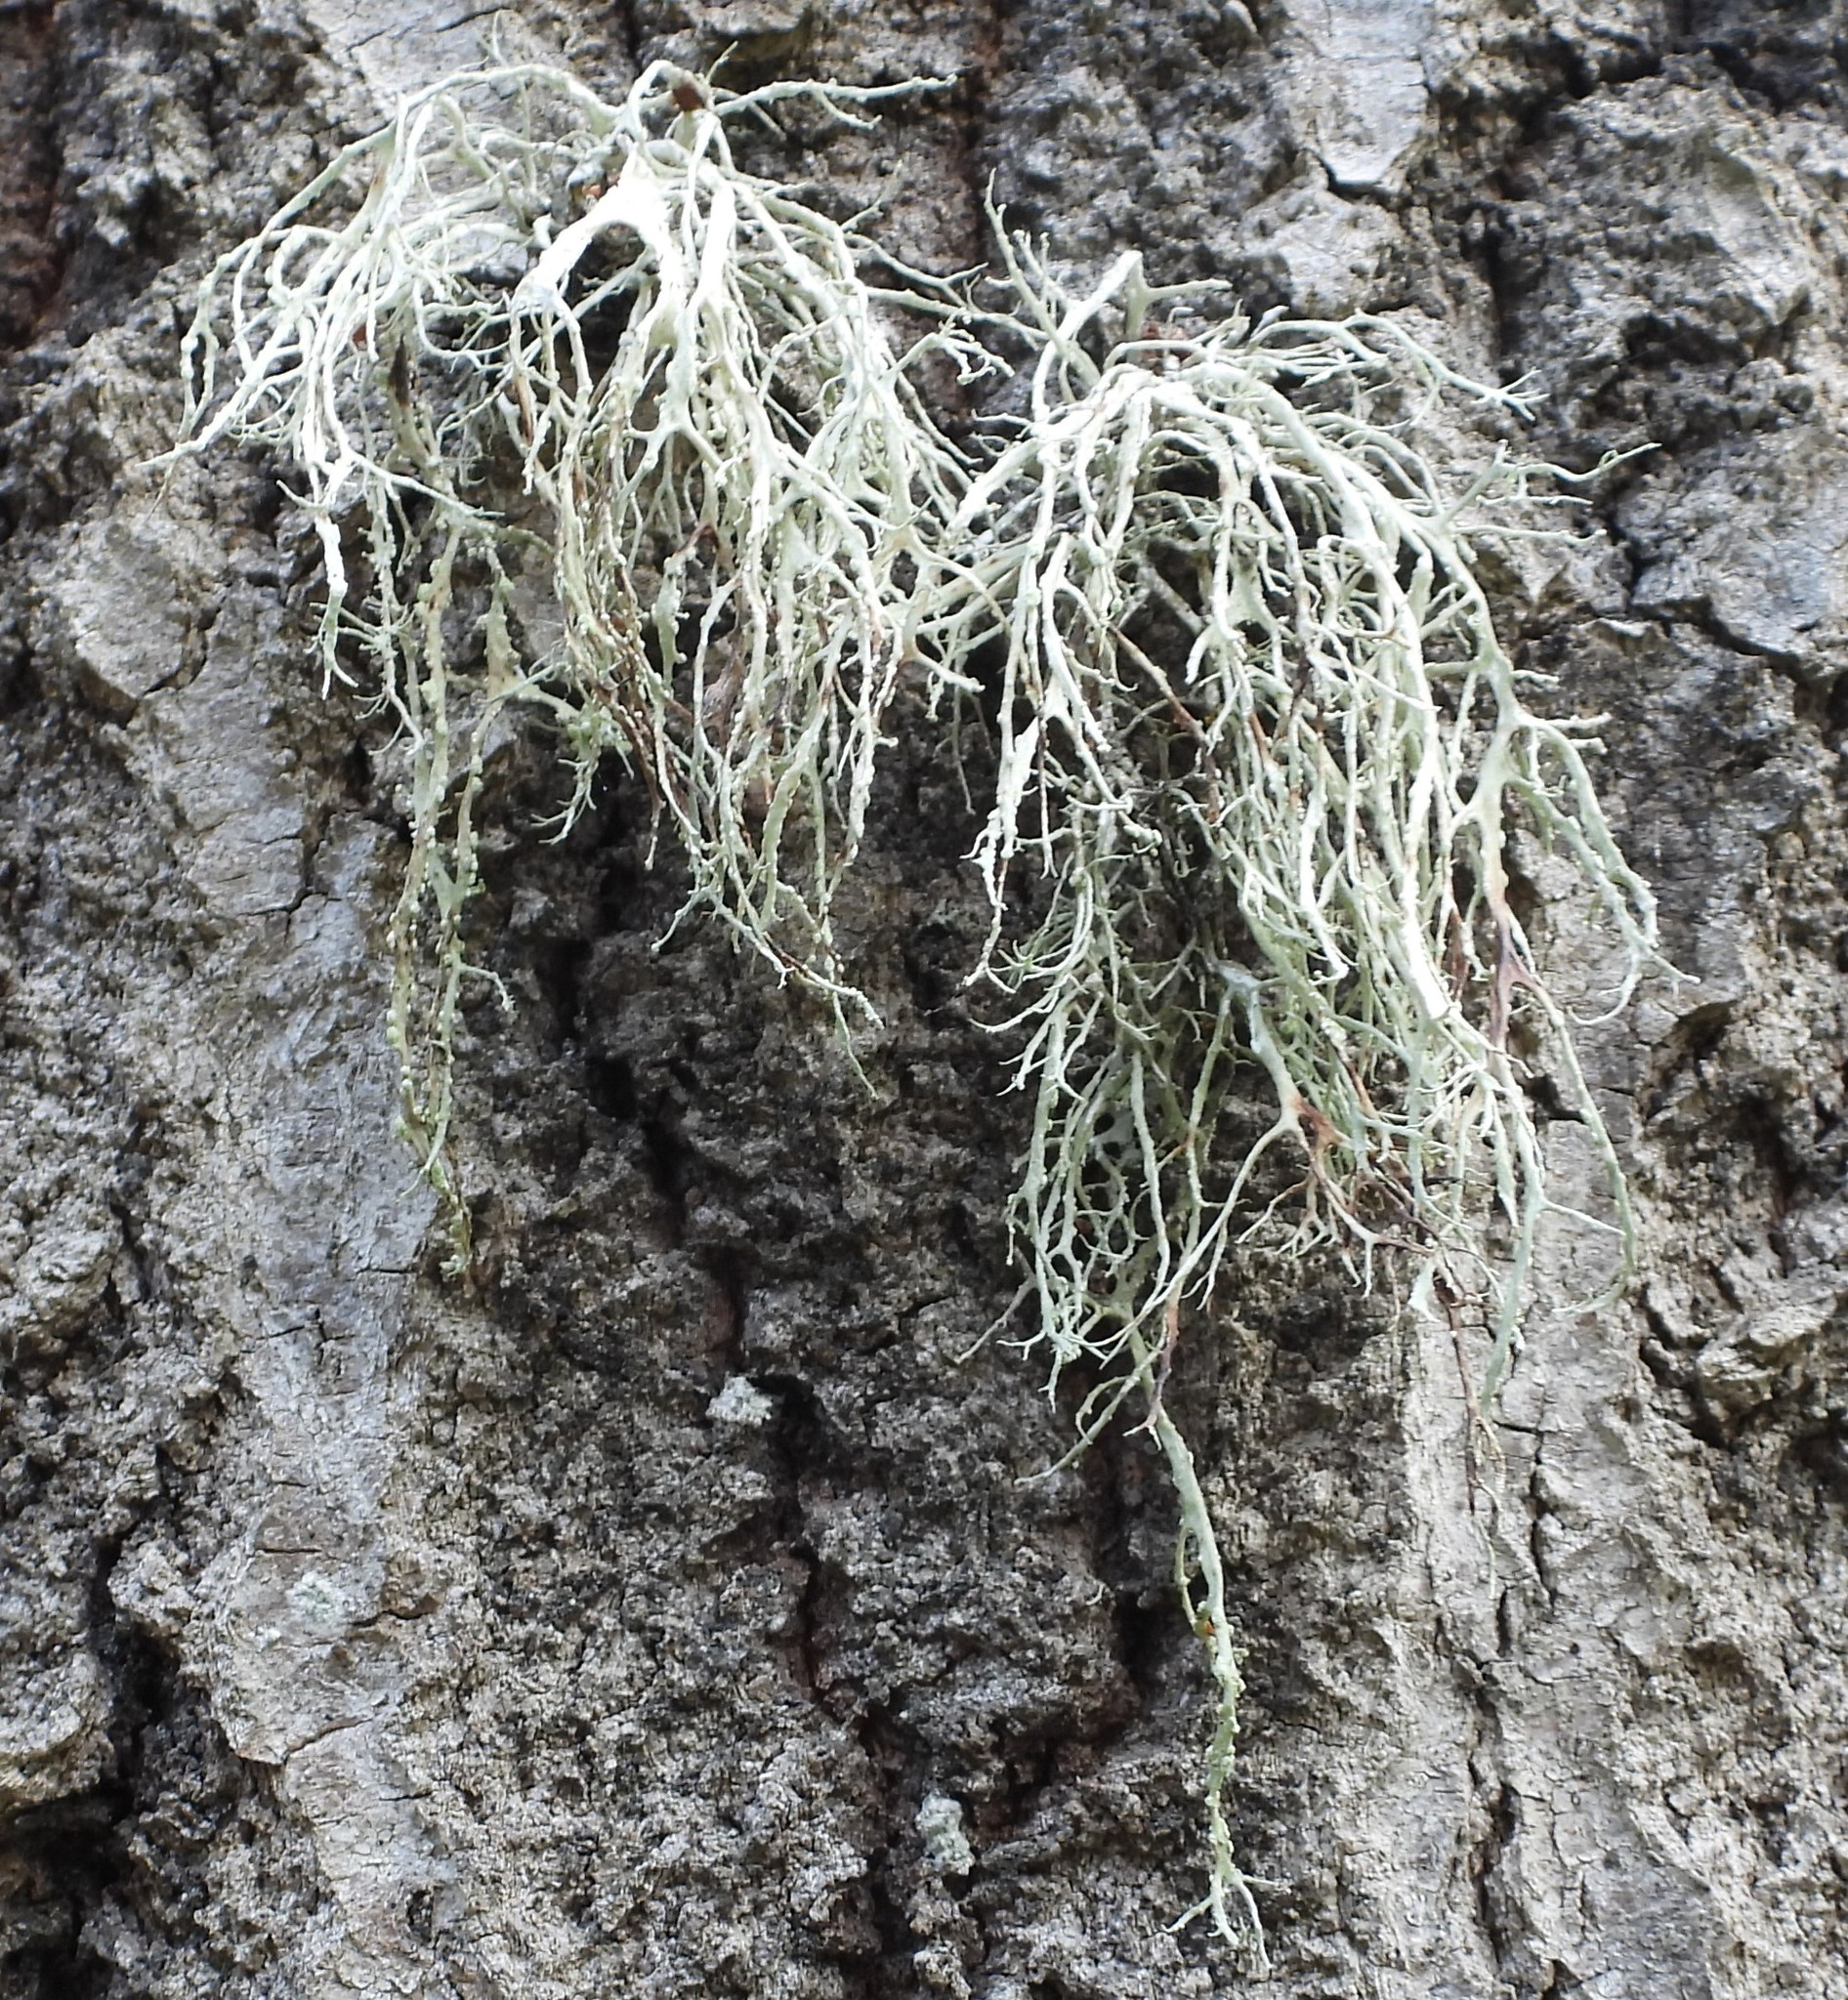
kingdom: Fungi
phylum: Ascomycota
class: Lecanoromycetes
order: Lecanorales
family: Ramalinaceae
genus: Ramalina
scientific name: Ramalina farinacea
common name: Farinose cartilage lichen
